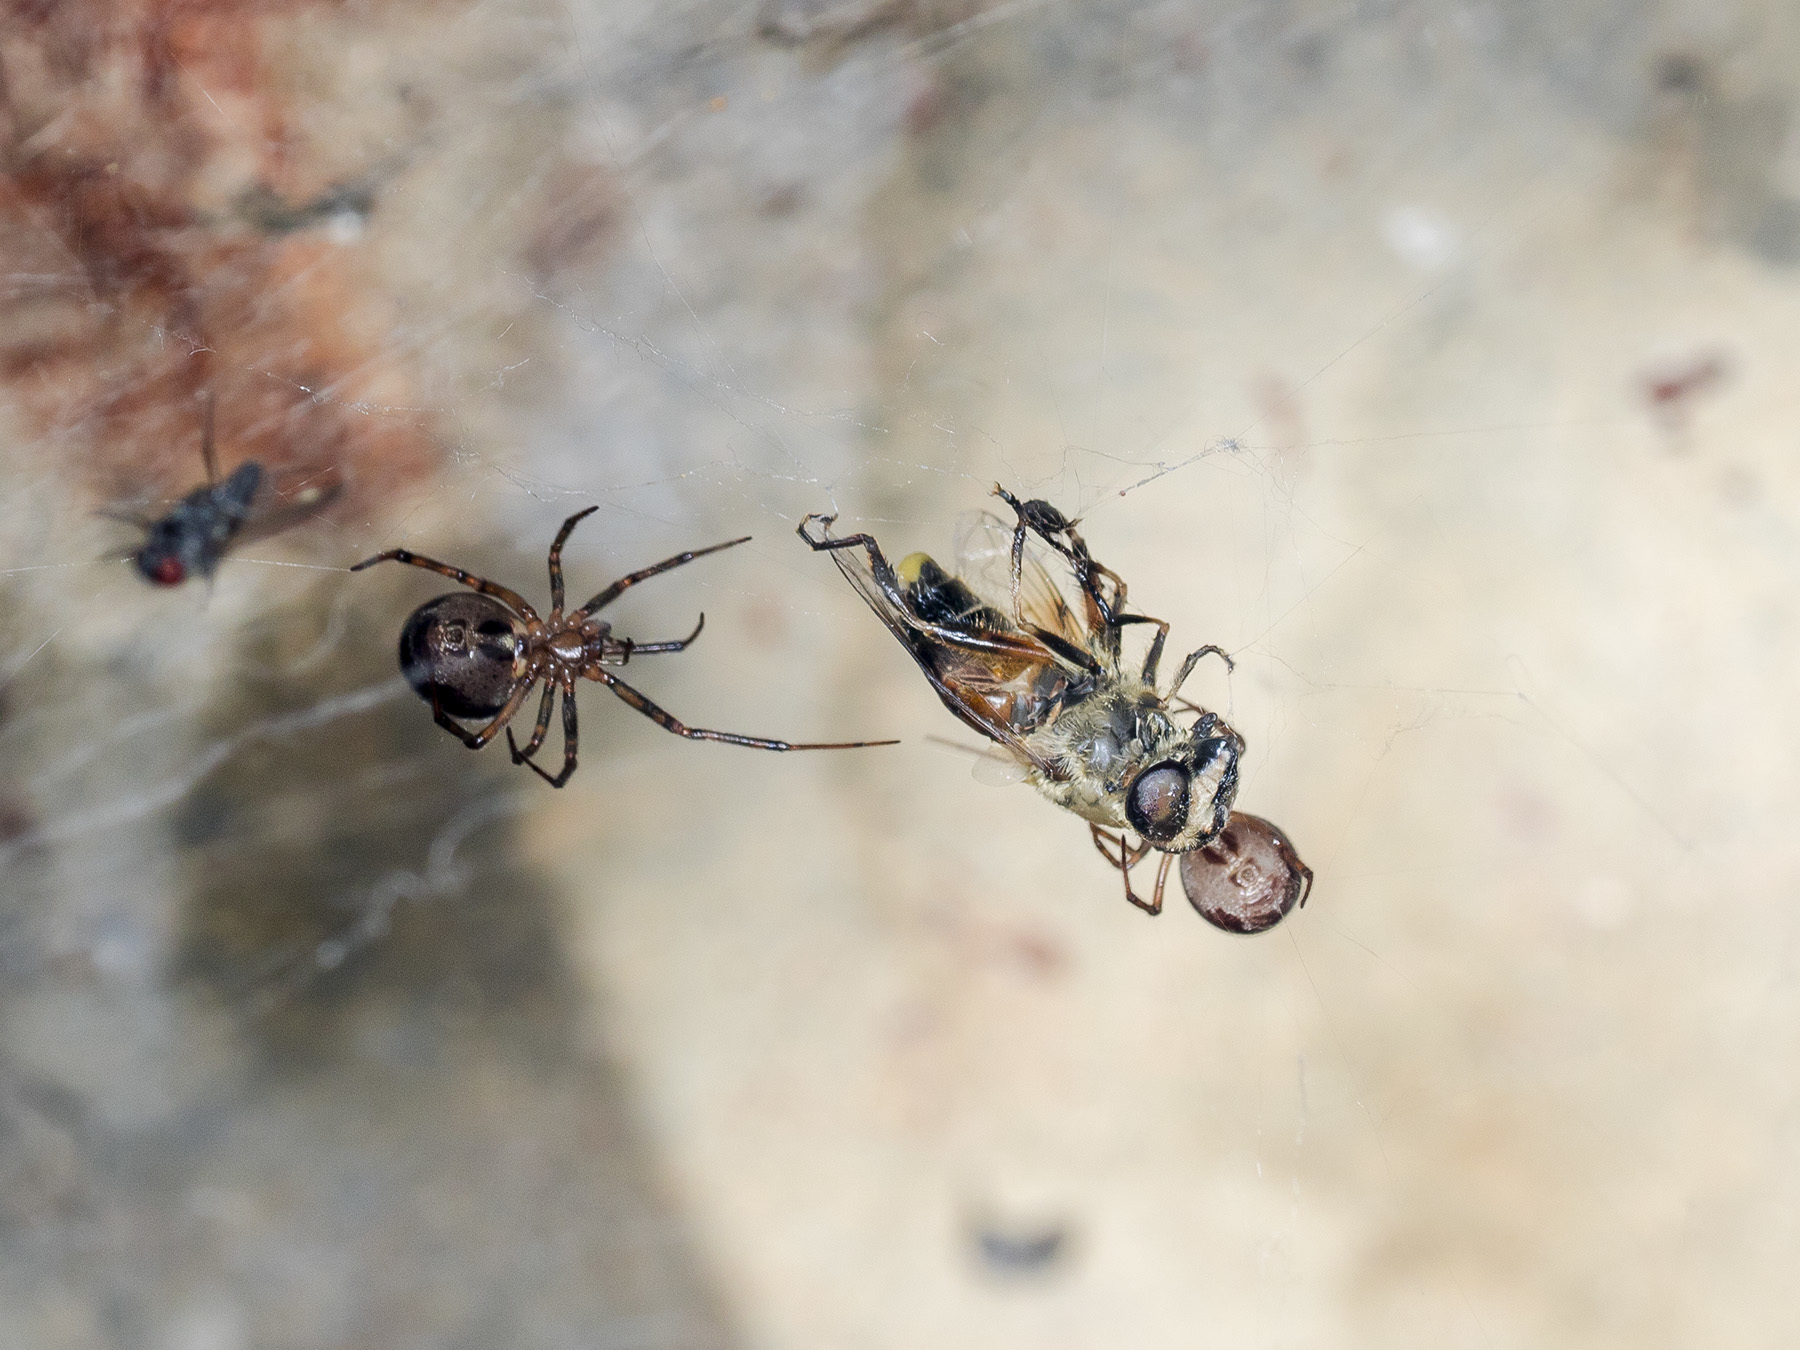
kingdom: Animalia
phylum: Arthropoda
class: Arachnida
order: Araneae
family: Theridiidae
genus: Steatoda
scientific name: Steatoda castanea
